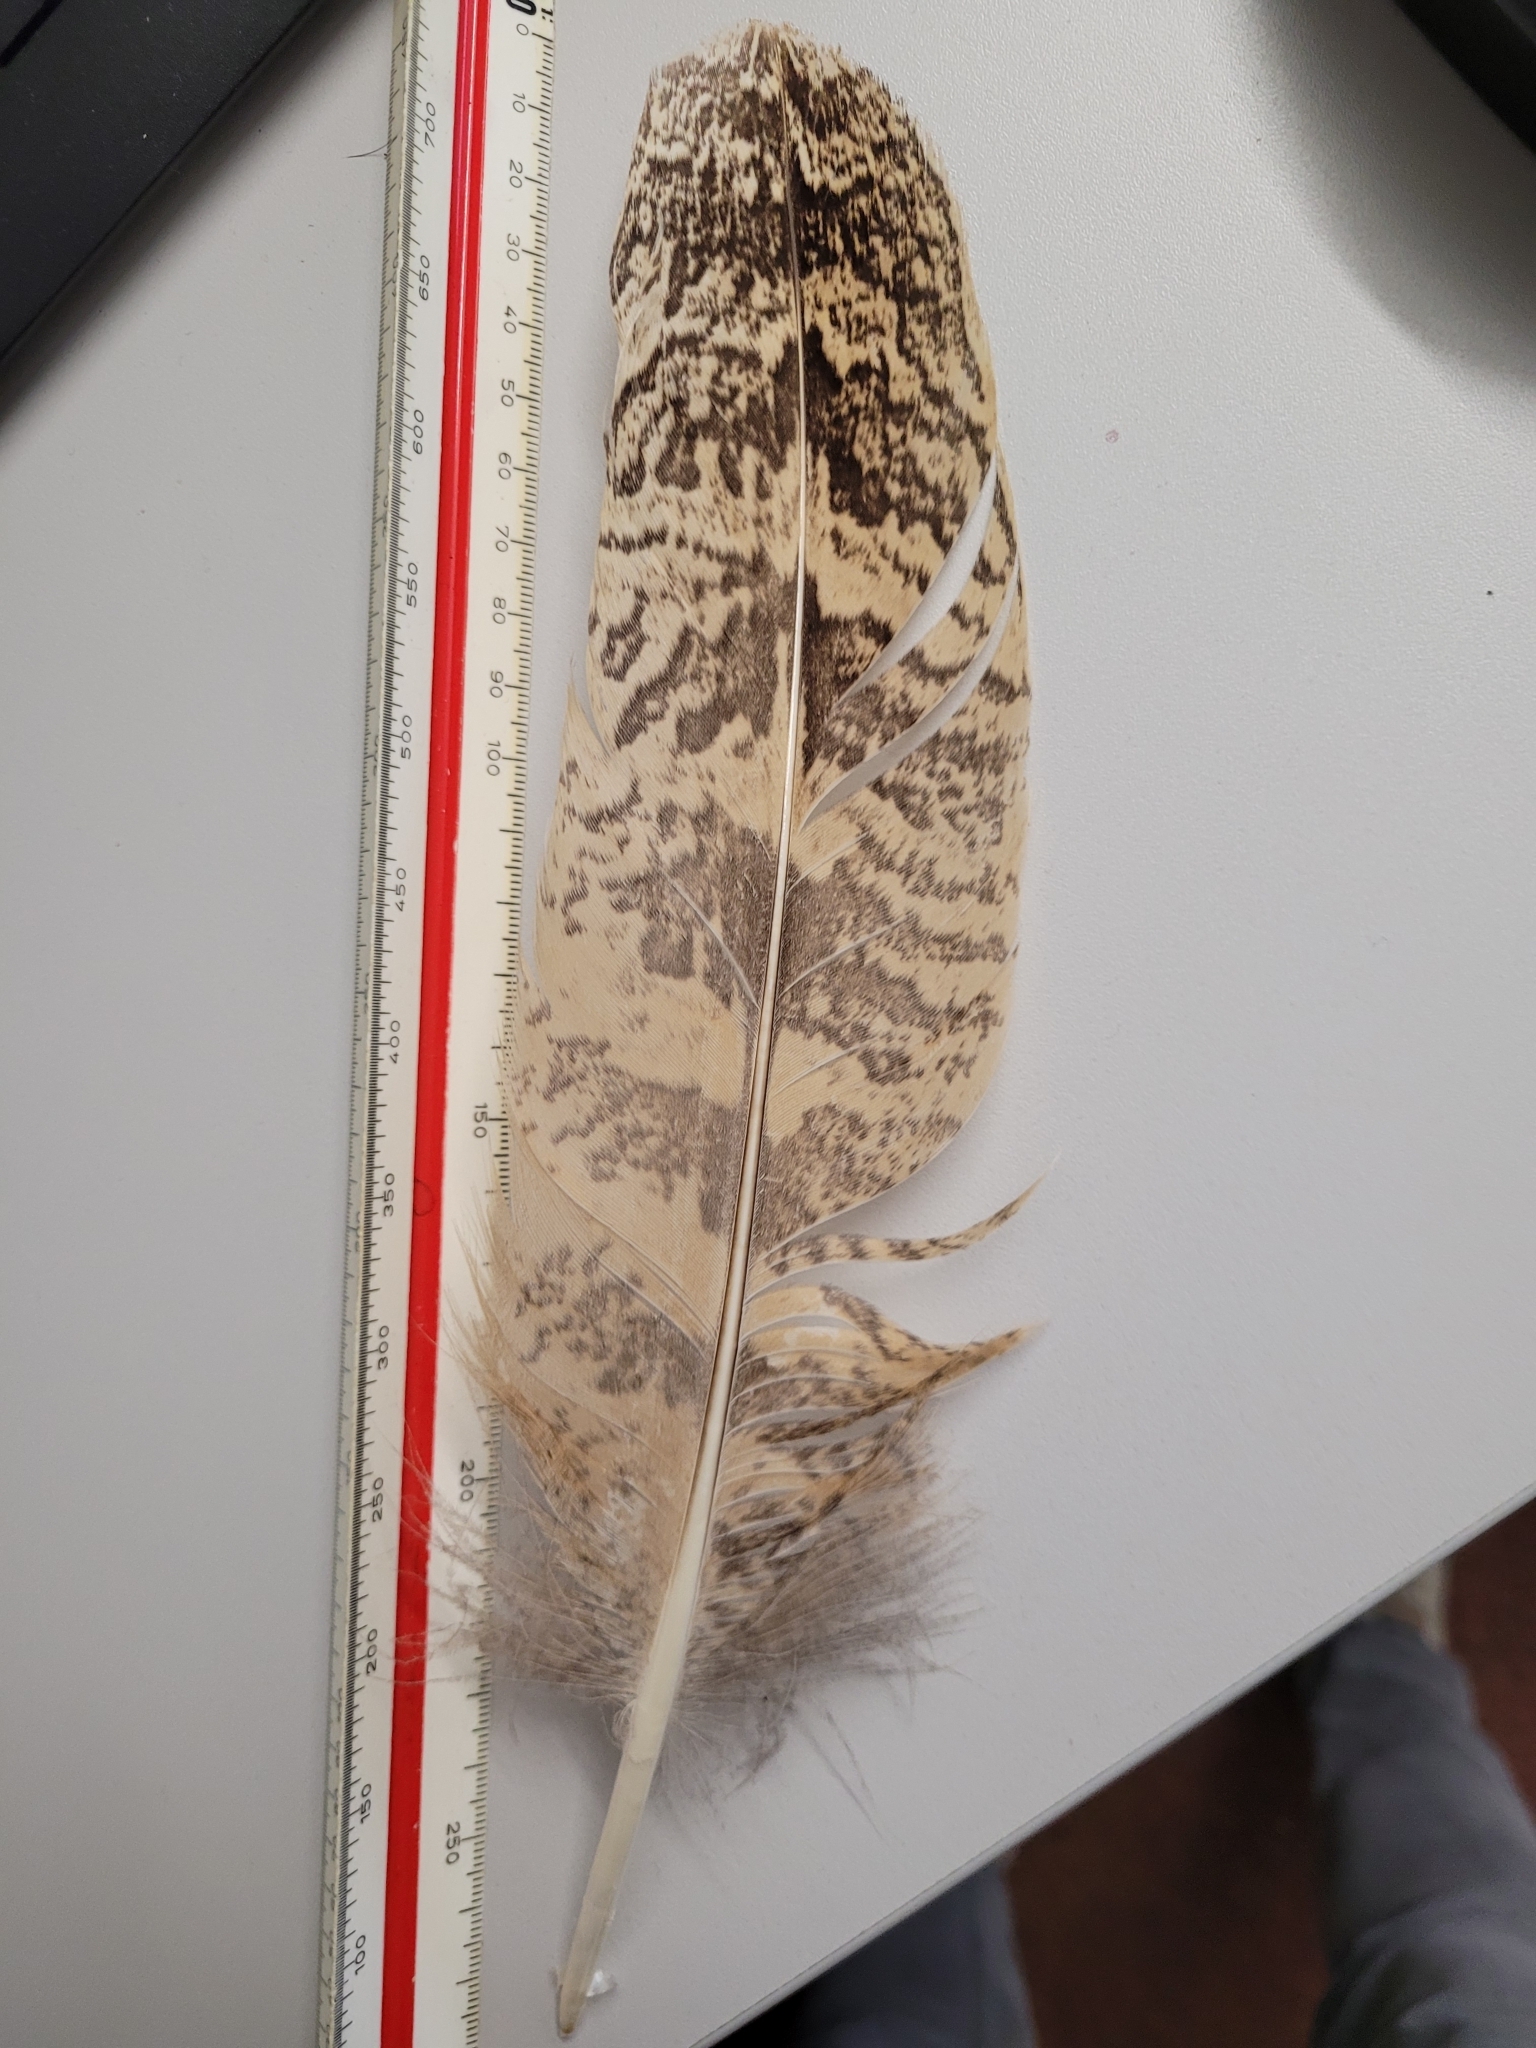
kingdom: Animalia
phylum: Chordata
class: Aves
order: Strigiformes
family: Strigidae
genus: Bubo
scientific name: Bubo bubo
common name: Eurasian eagle-owl
